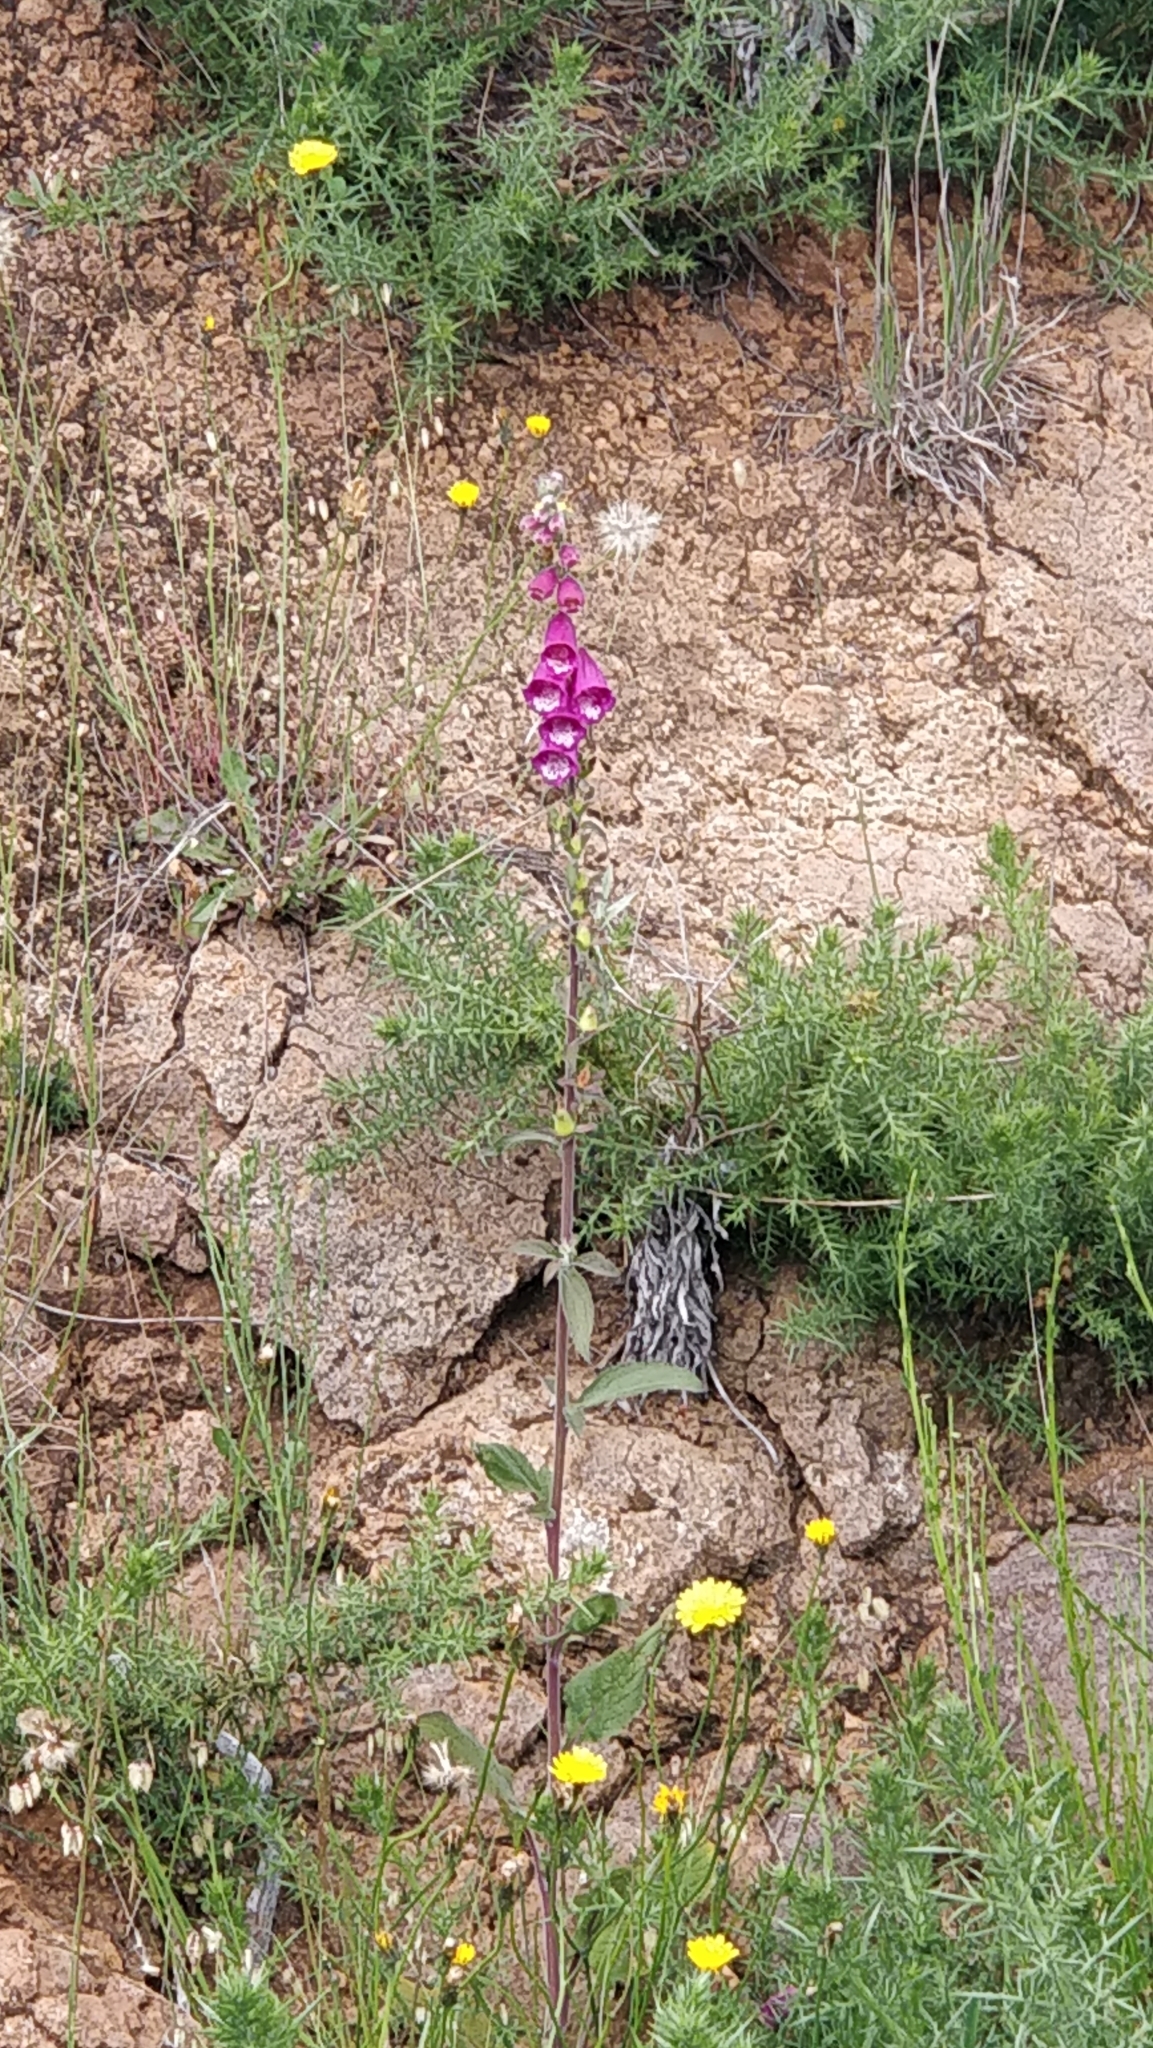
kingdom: Plantae
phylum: Tracheophyta
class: Magnoliopsida
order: Lamiales
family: Plantaginaceae
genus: Digitalis
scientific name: Digitalis purpurea
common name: Foxglove
